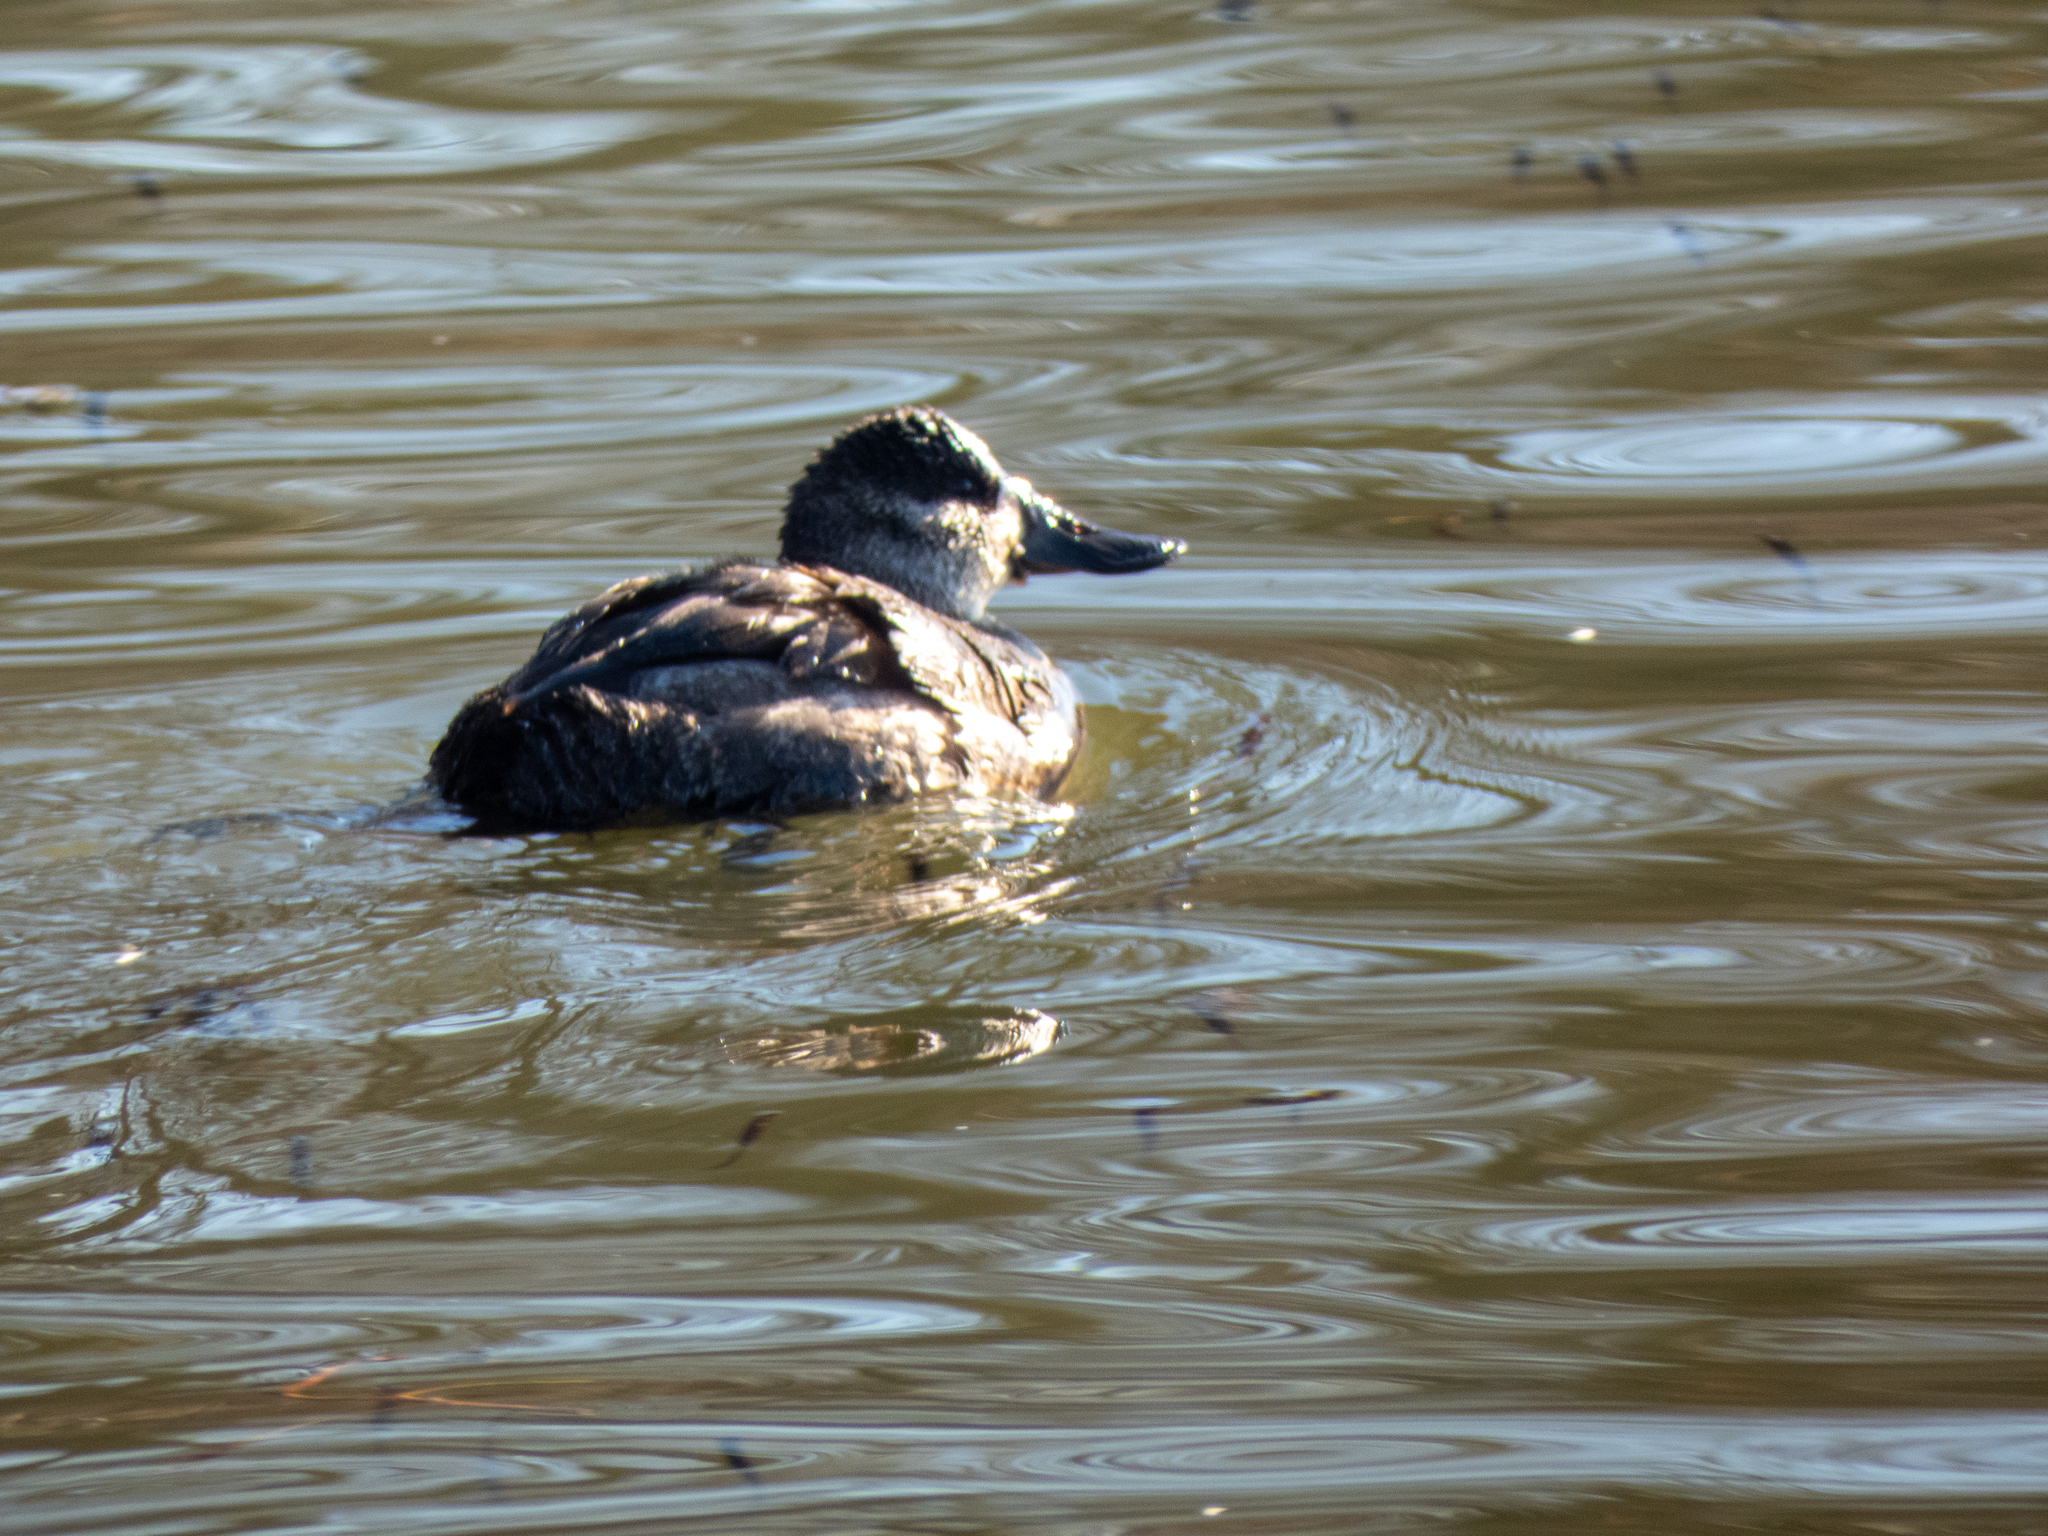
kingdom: Animalia
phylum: Chordata
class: Aves
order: Anseriformes
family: Anatidae
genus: Oxyura
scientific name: Oxyura jamaicensis
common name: Ruddy duck
